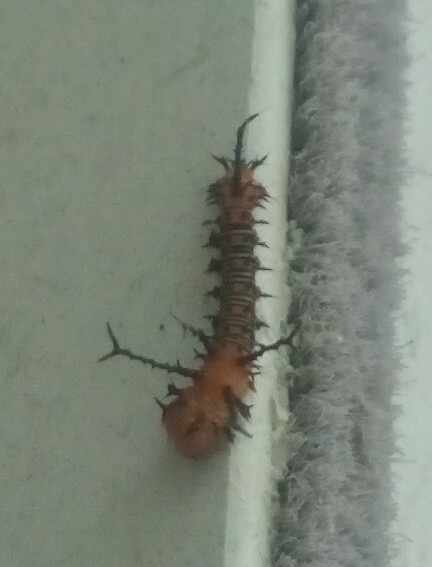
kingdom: Animalia
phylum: Arthropoda
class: Insecta
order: Lepidoptera
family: Saturniidae
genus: Eacles
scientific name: Eacles imperialis
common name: Imperial moth
